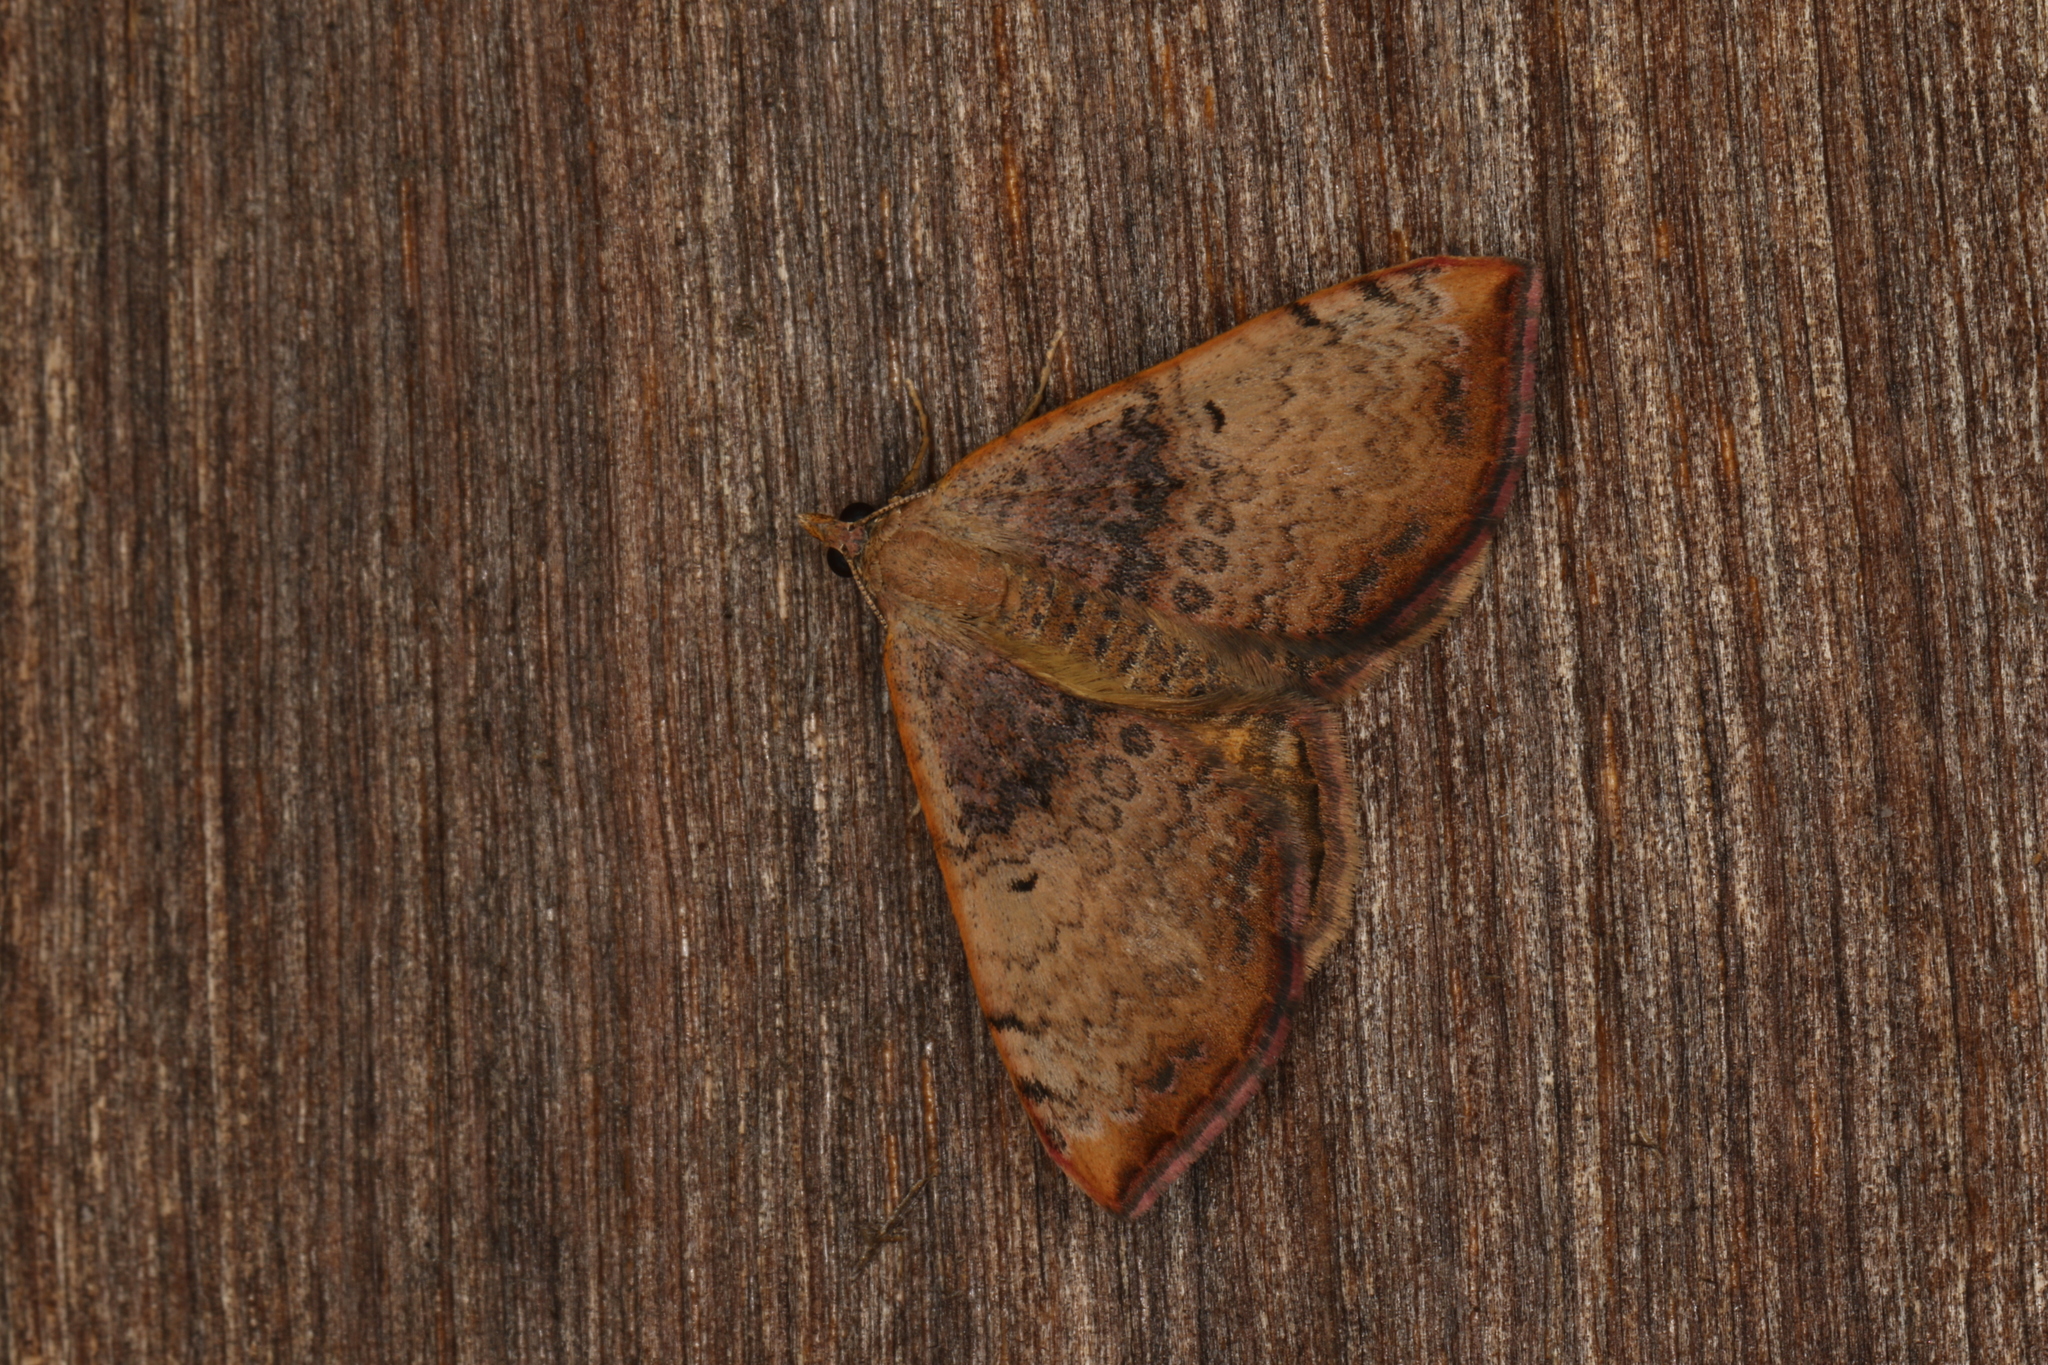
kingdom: Animalia
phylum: Arthropoda
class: Insecta
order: Lepidoptera
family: Geometridae
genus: Chrysolarentia
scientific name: Chrysolarentia mecynata
